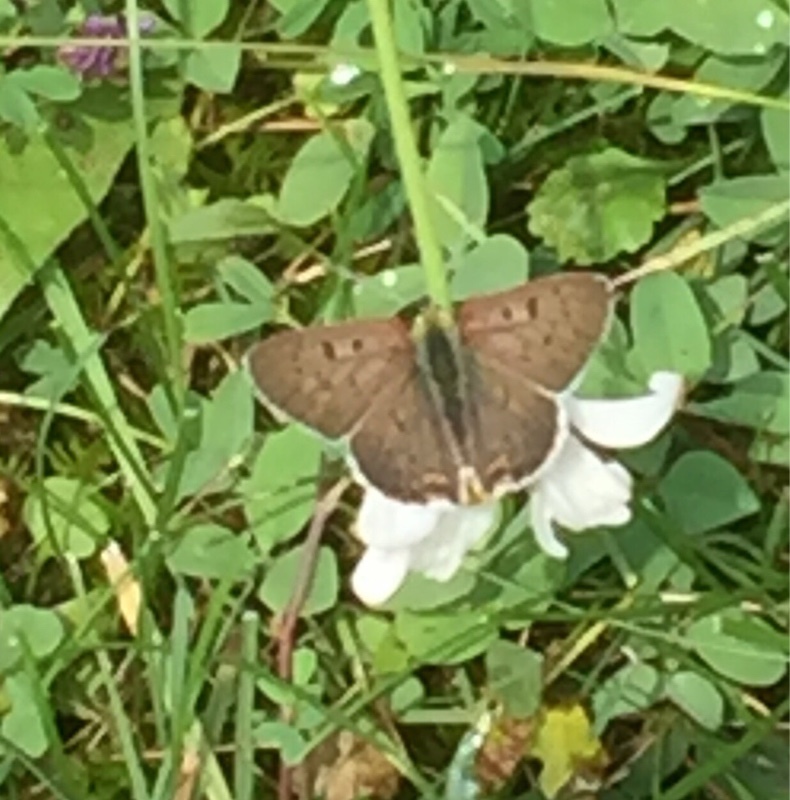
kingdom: Animalia
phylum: Arthropoda
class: Insecta
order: Lepidoptera
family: Lycaenidae
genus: Loweia
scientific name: Loweia tityrus
